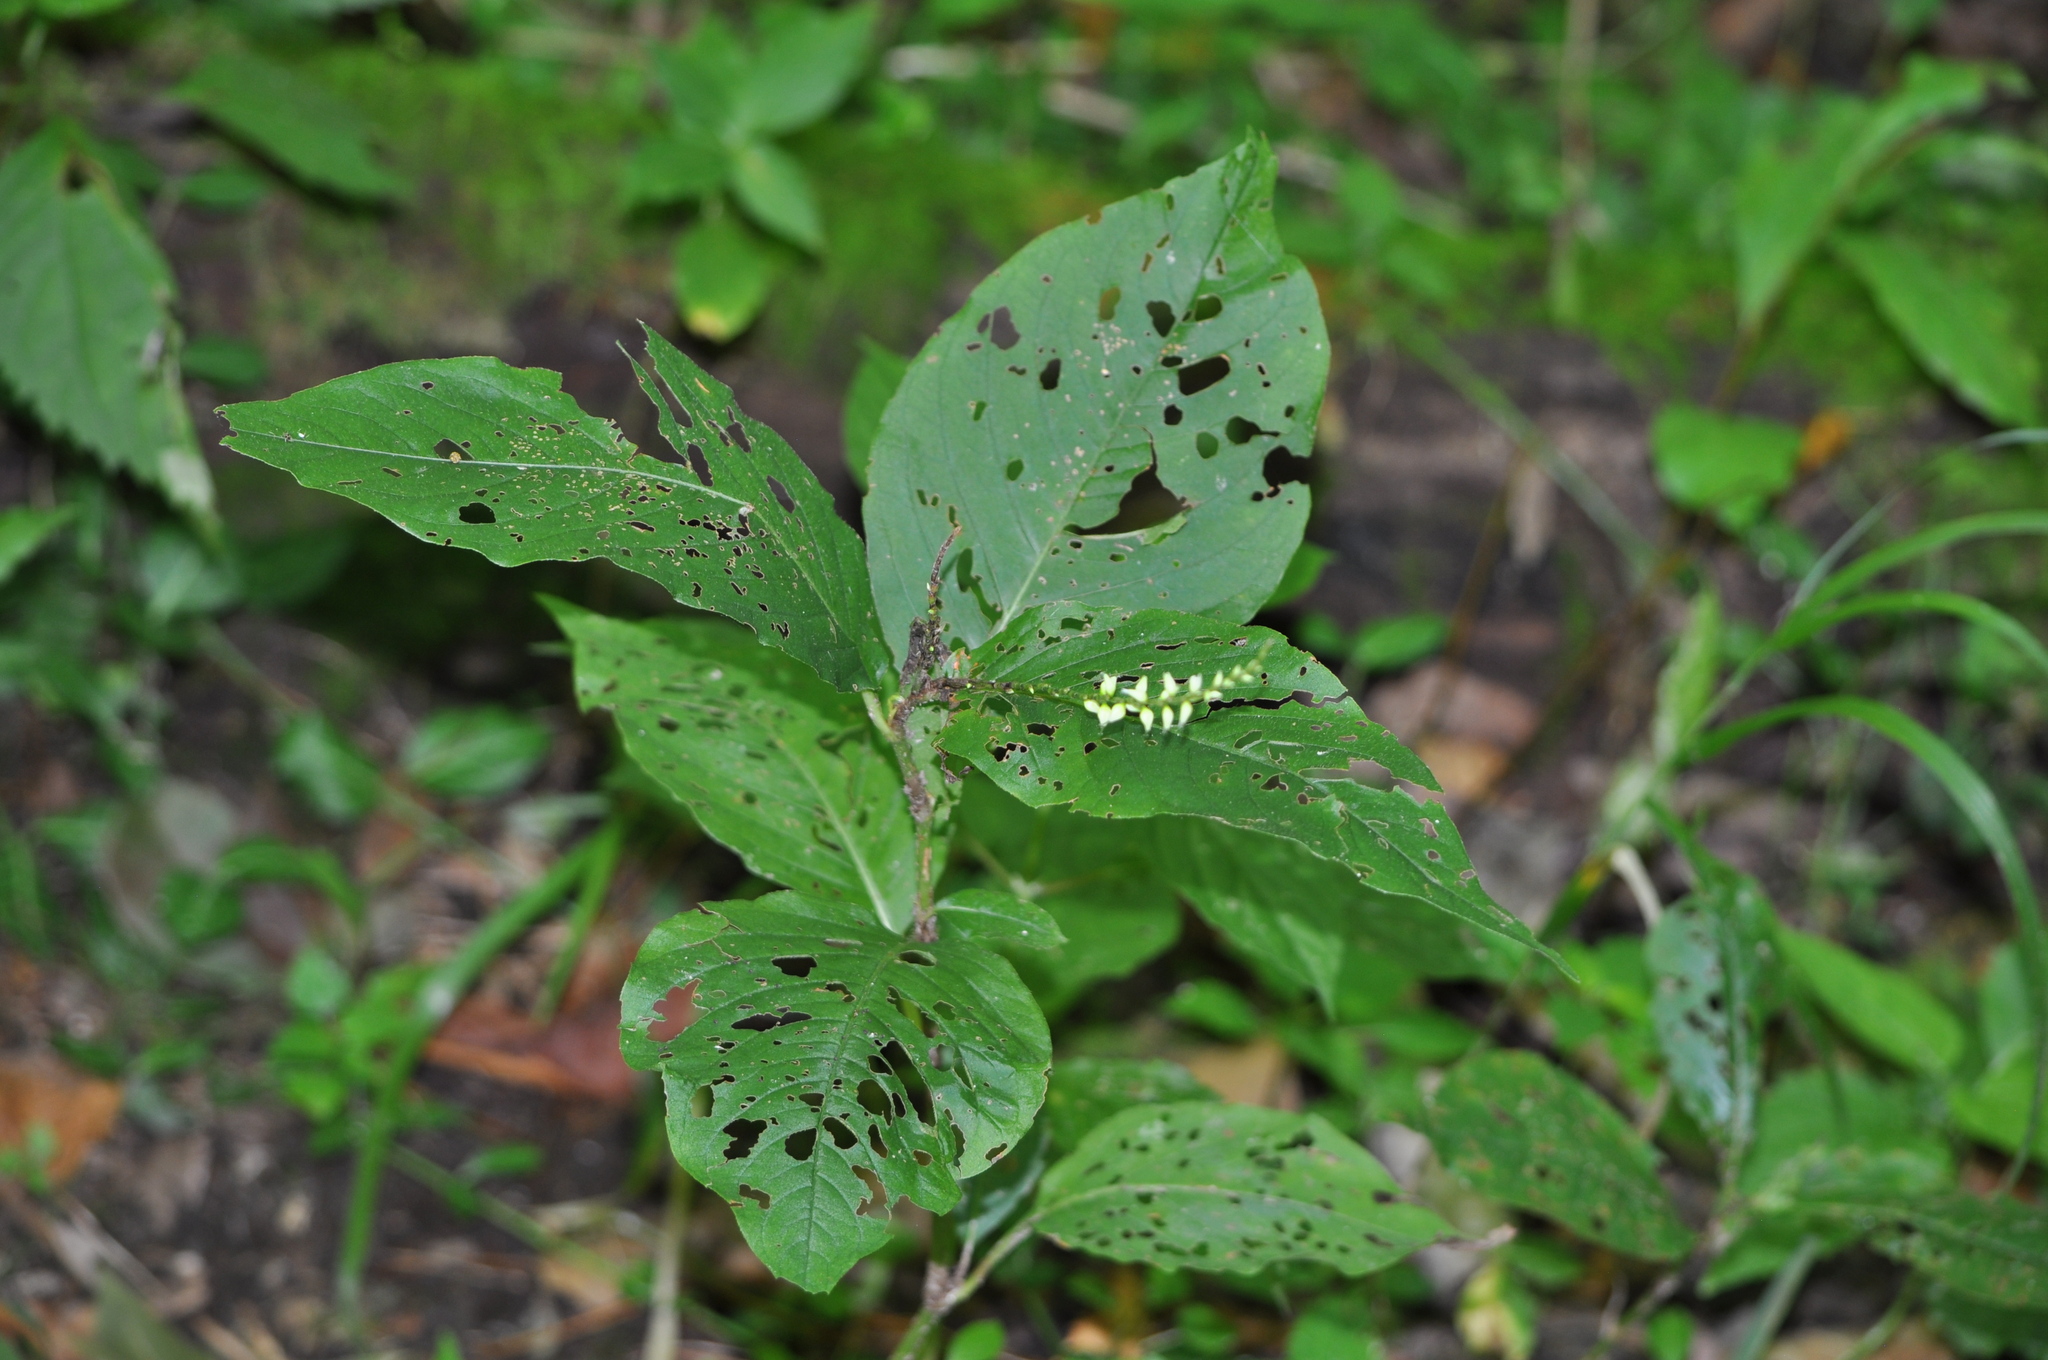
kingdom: Plantae
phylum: Tracheophyta
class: Magnoliopsida
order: Caryophyllales
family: Polygonaceae
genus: Persicaria
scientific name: Persicaria virginiana
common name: Jumpseed
